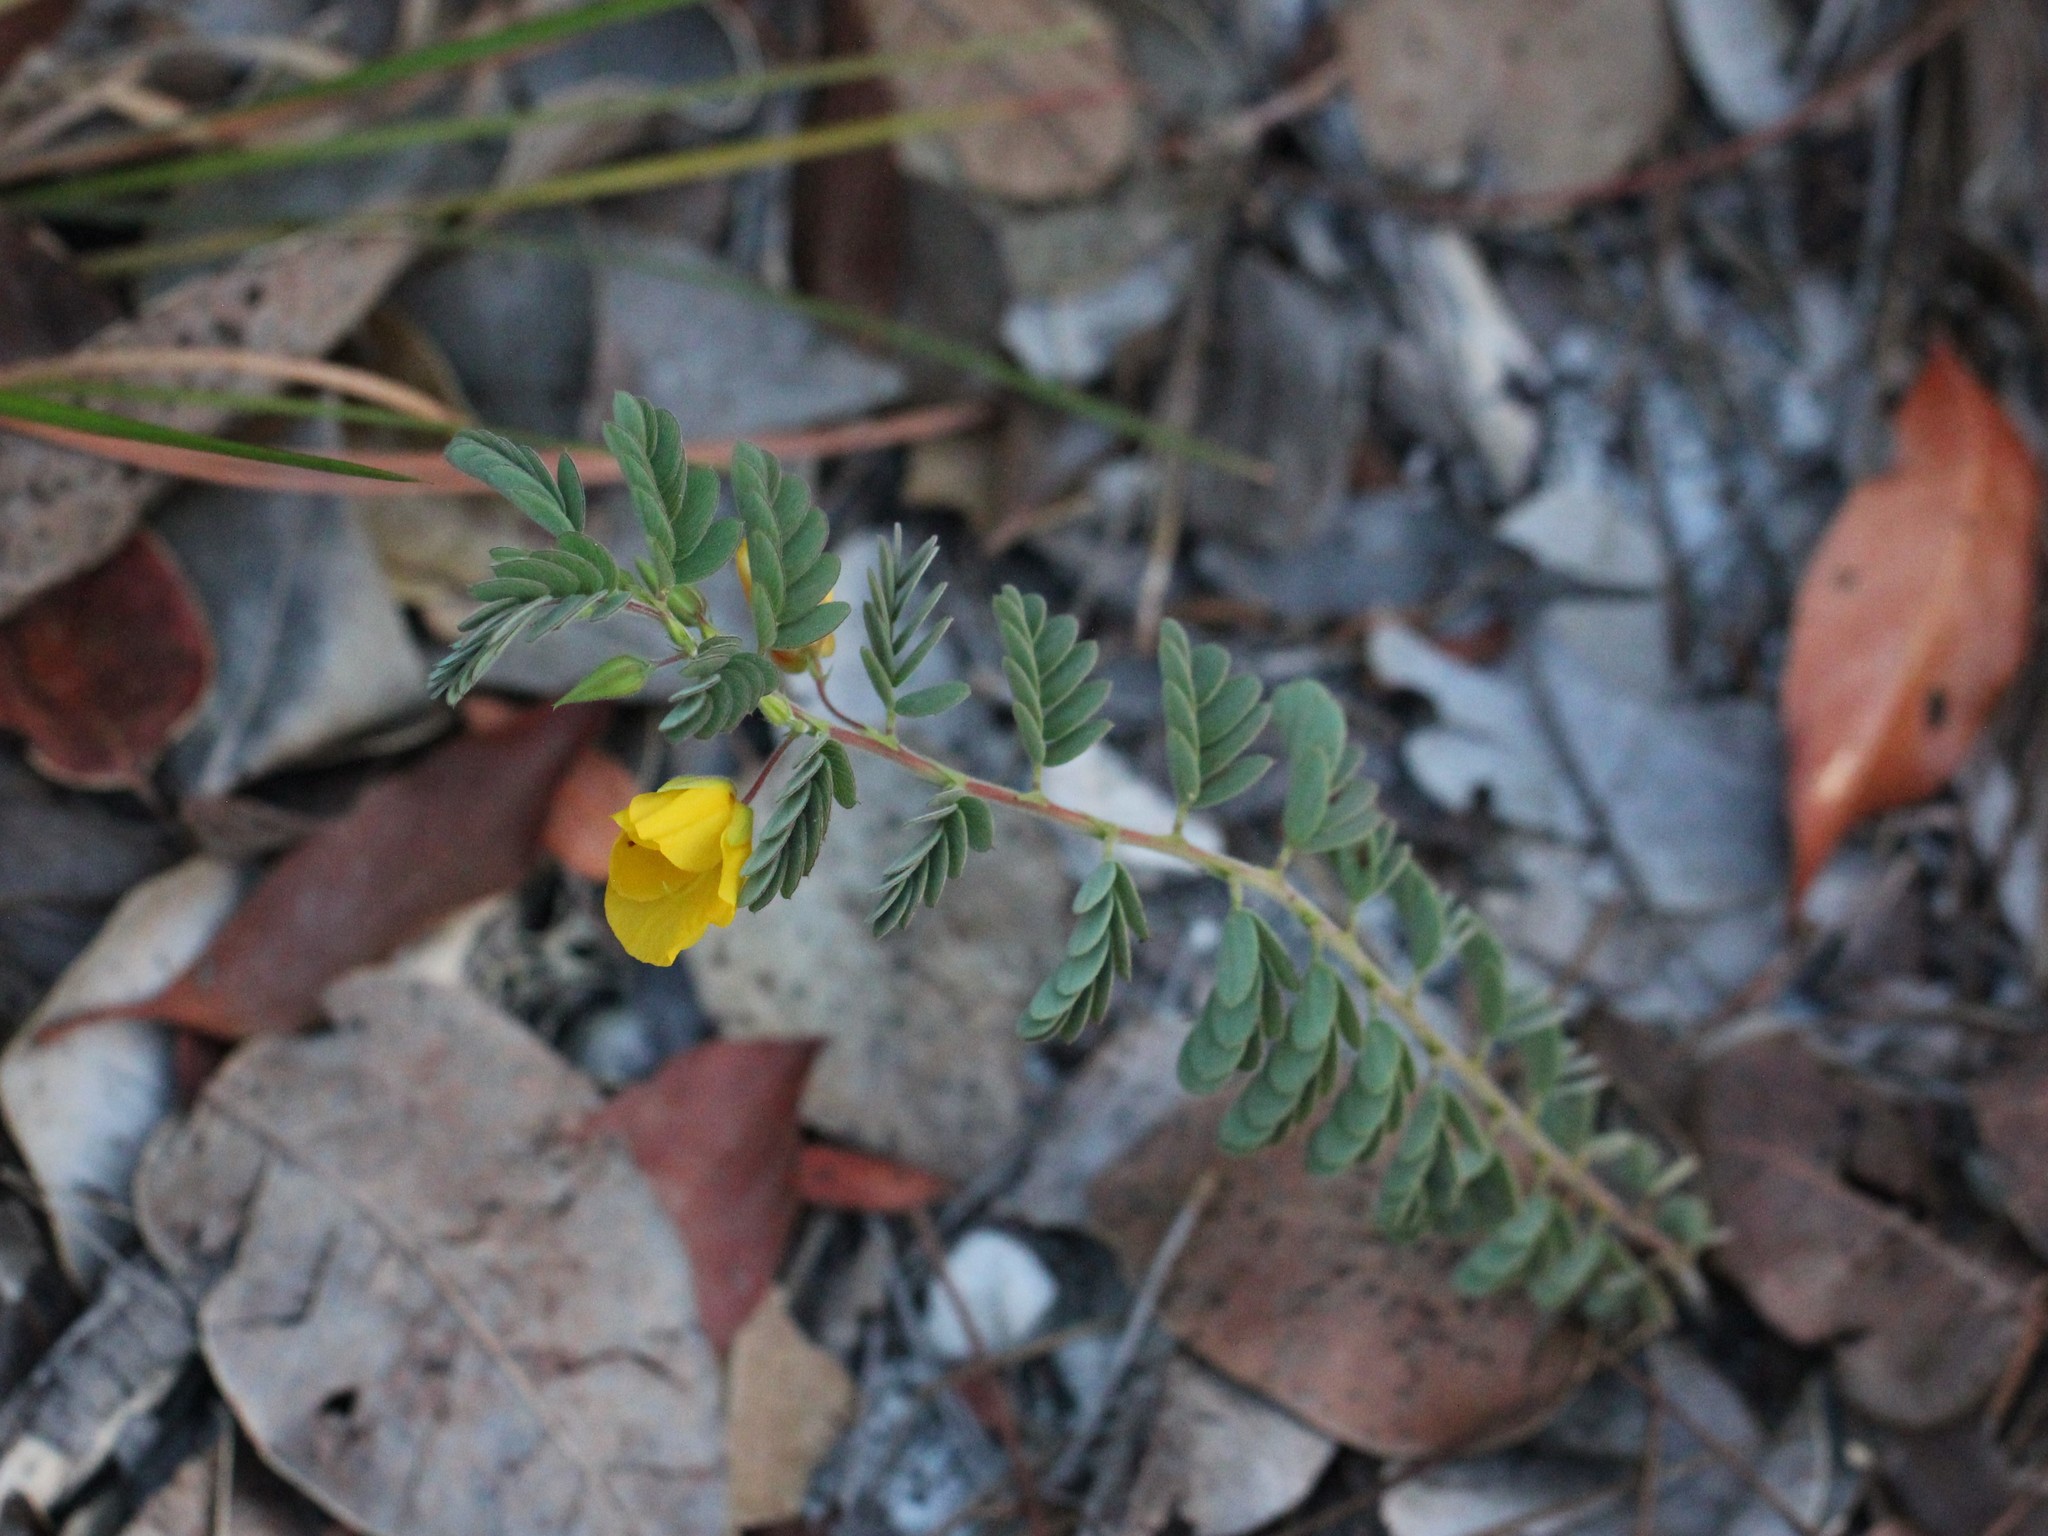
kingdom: Plantae
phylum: Tracheophyta
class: Magnoliopsida
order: Fabales
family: Fabaceae
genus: Chamaecrista
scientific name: Chamaecrista lineata
